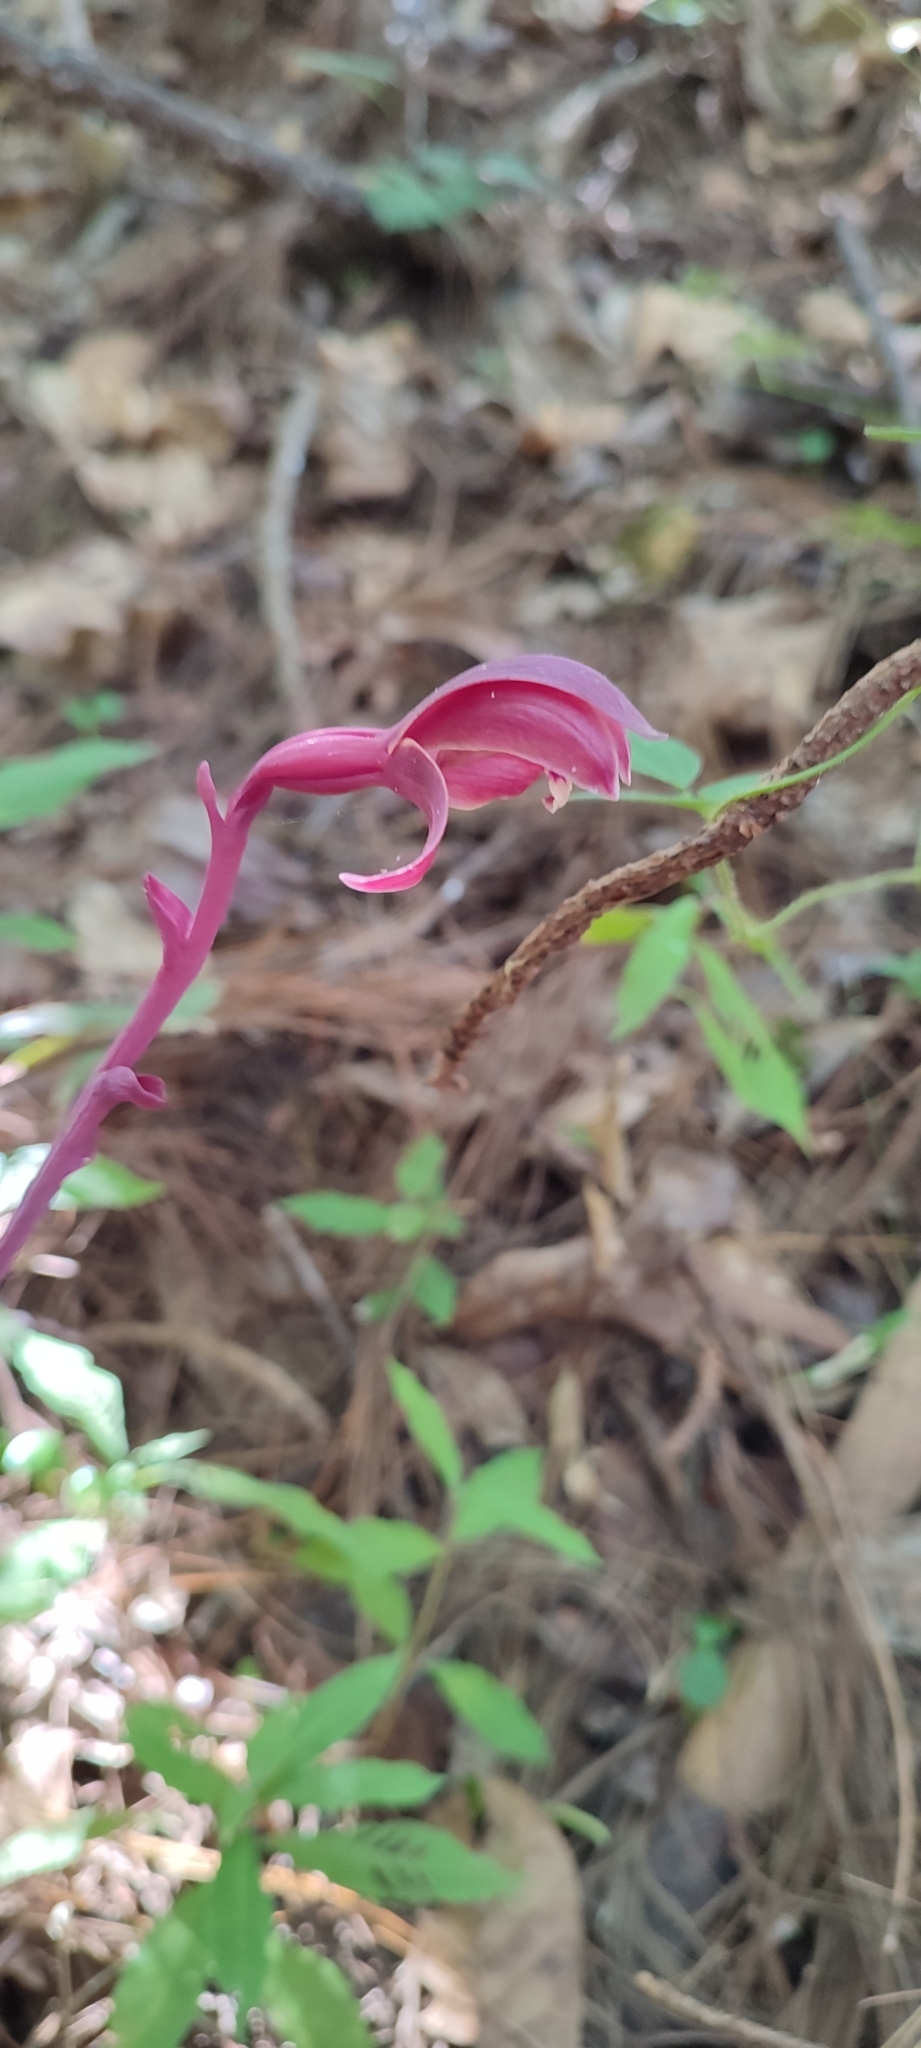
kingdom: Plantae
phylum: Tracheophyta
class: Liliopsida
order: Asparagales
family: Orchidaceae
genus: Bletia
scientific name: Bletia brevicaulis
